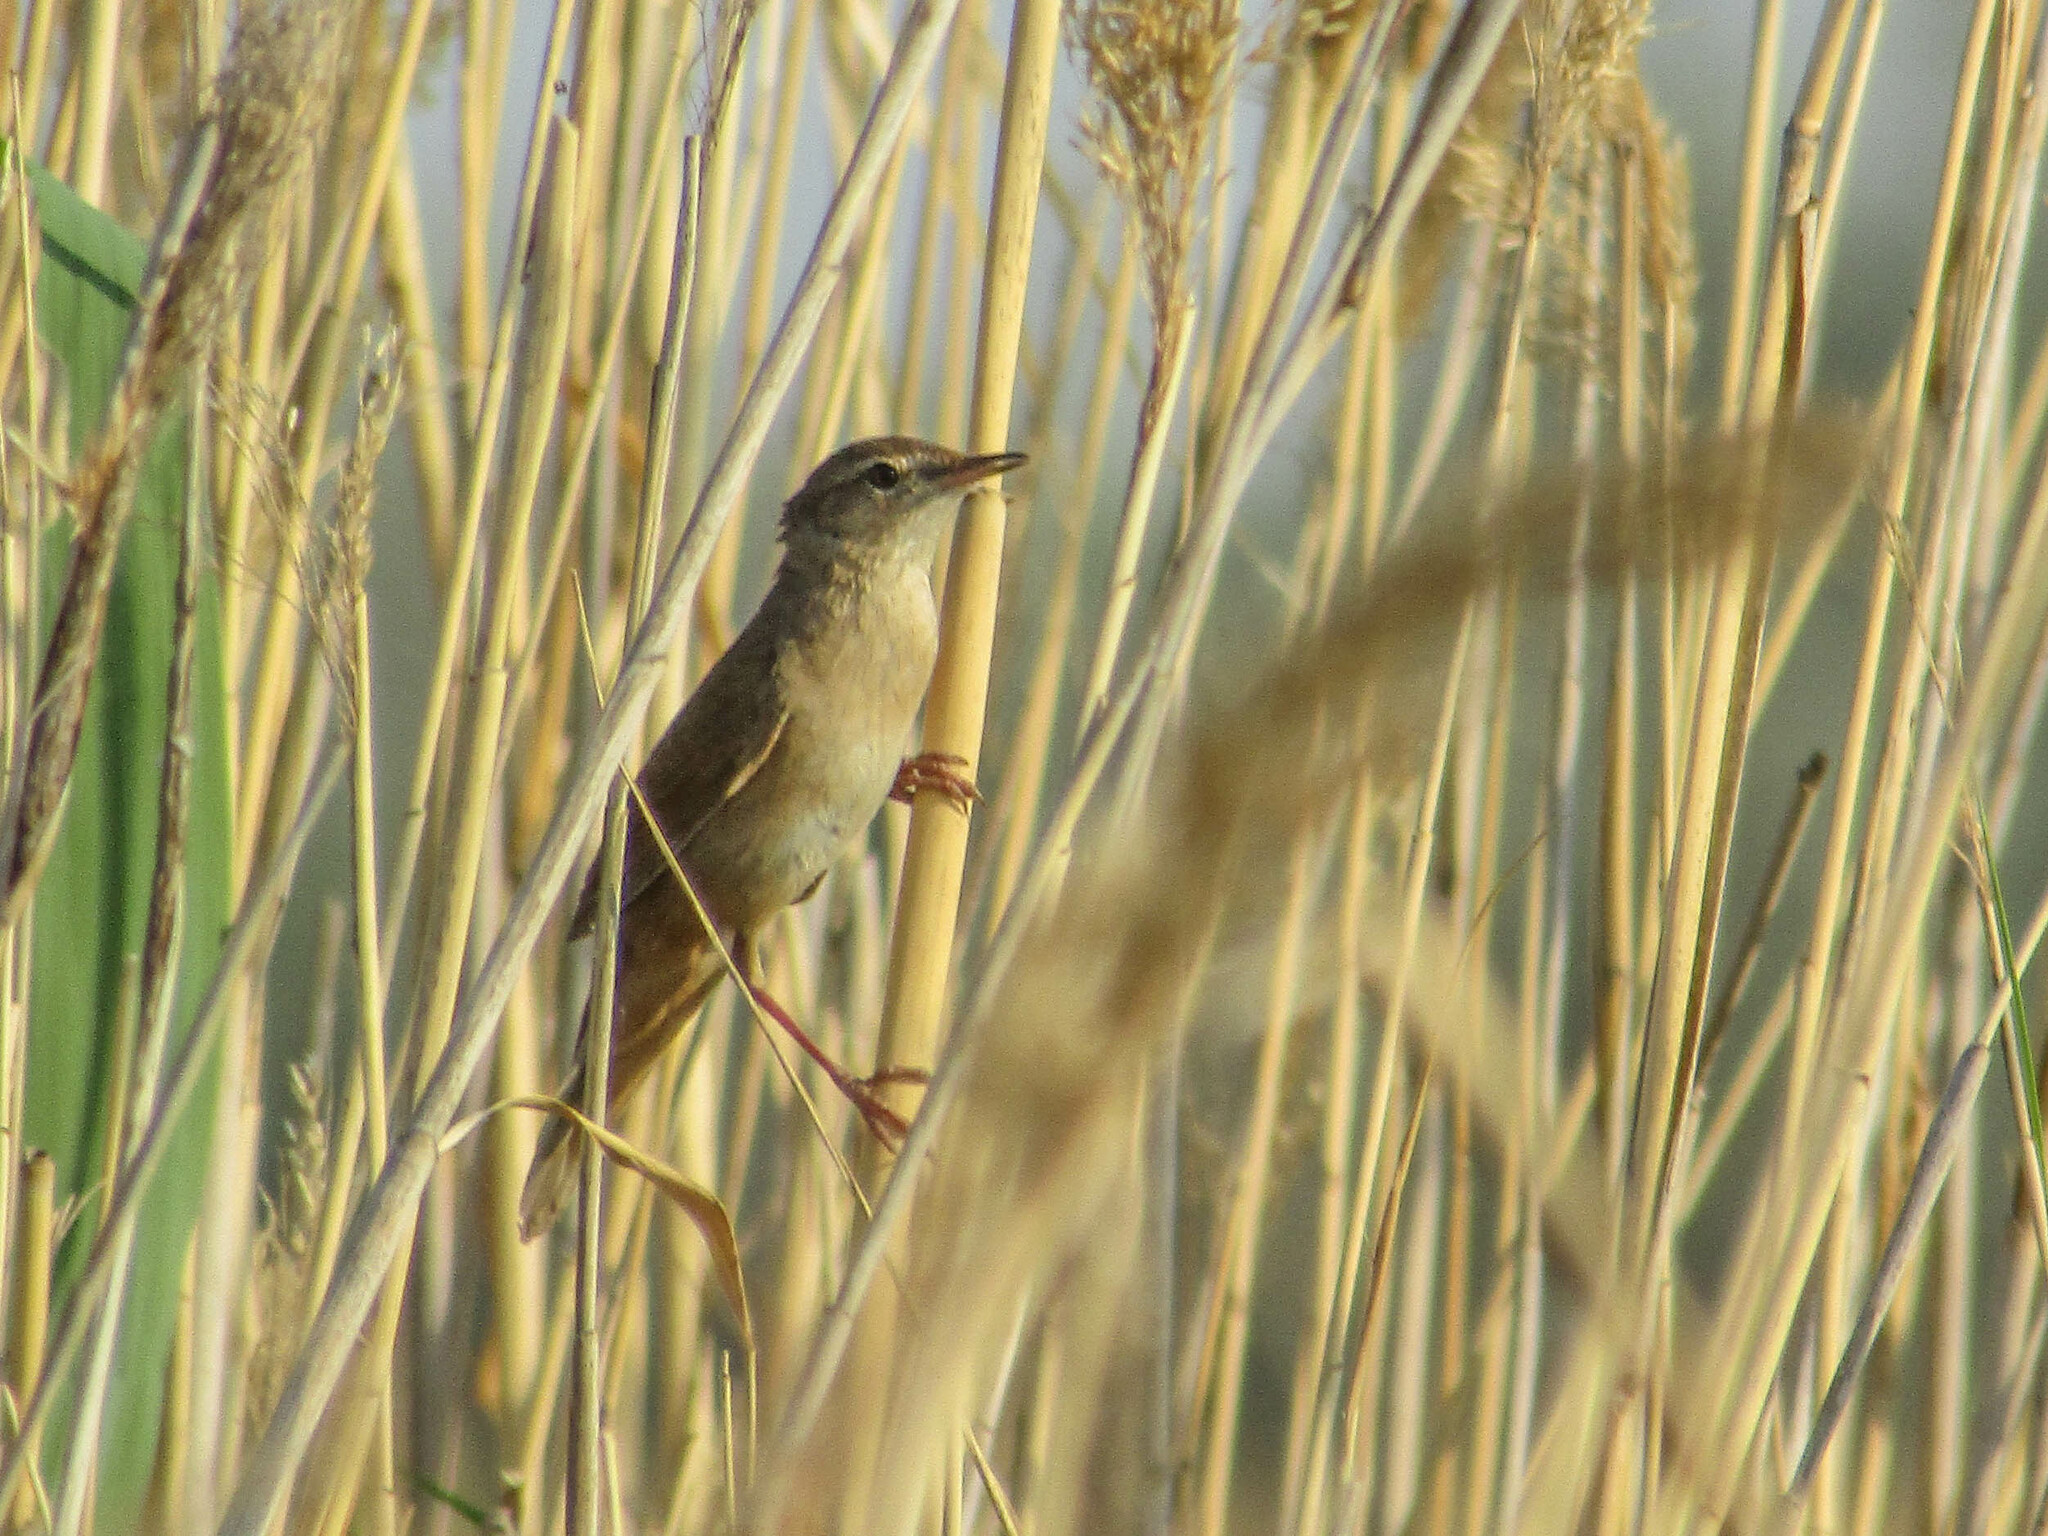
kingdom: Animalia
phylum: Chordata
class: Aves
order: Passeriformes
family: Locustellidae
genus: Locustella
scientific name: Locustella luscinioides
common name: Savi's warbler
